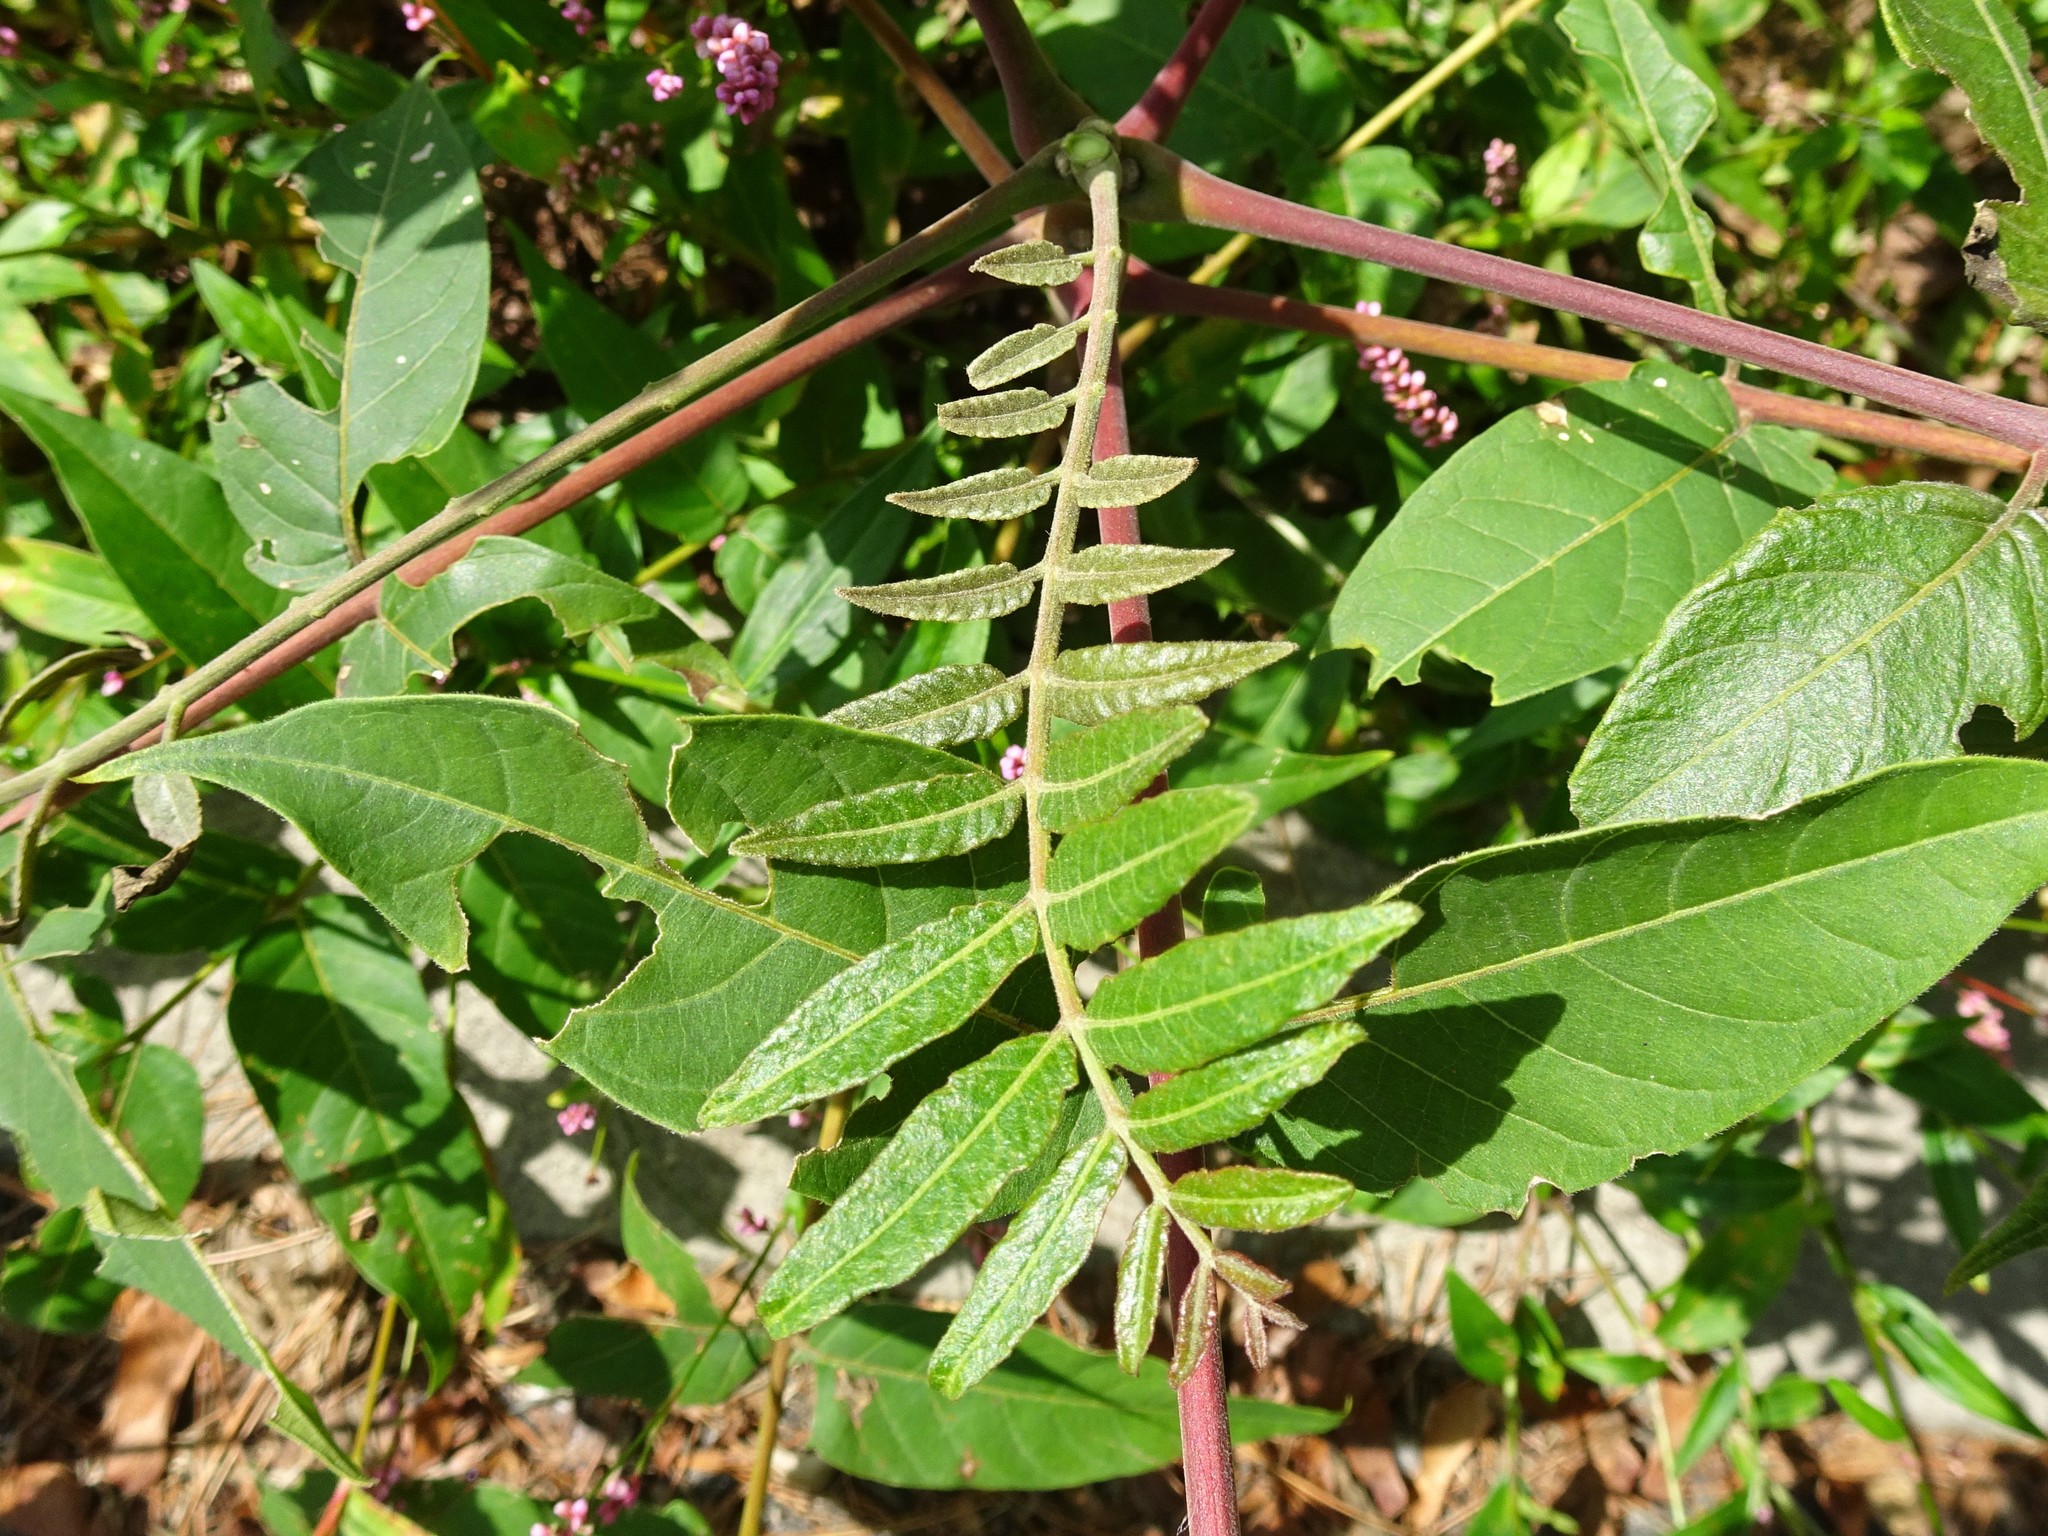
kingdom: Plantae
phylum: Tracheophyta
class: Magnoliopsida
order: Sapindales
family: Simaroubaceae
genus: Ailanthus
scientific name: Ailanthus altissima
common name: Tree-of-heaven
